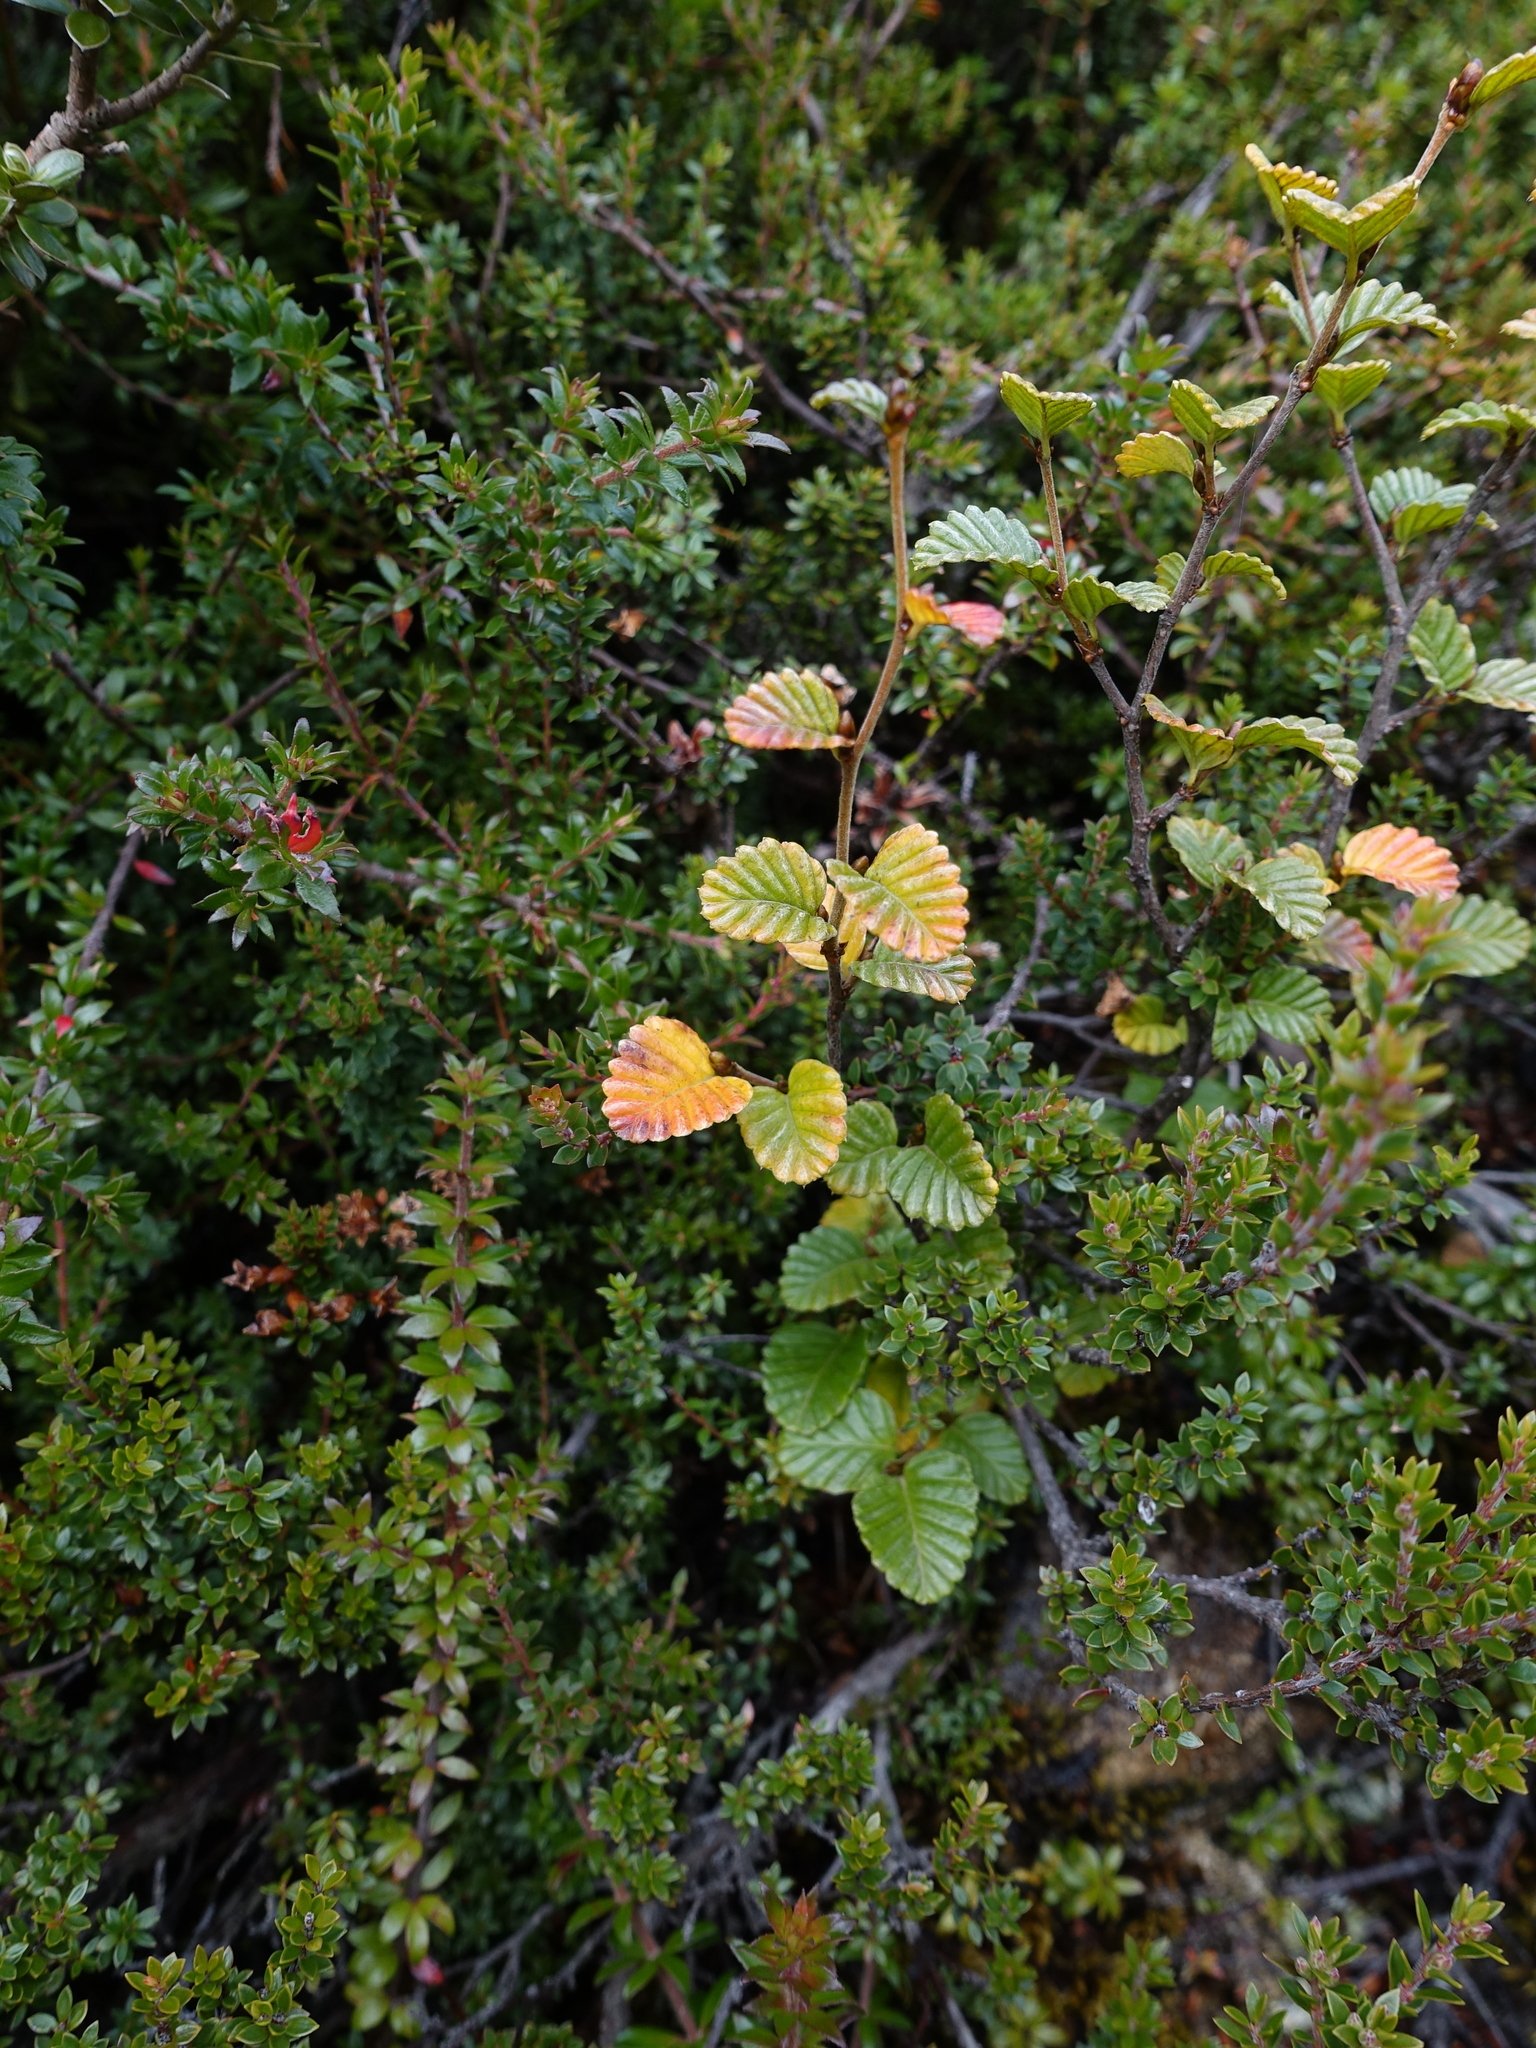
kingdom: Plantae
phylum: Tracheophyta
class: Magnoliopsida
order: Fagales
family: Nothofagaceae
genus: Nothofagus
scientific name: Nothofagus gunnii
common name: Tanglefoot
